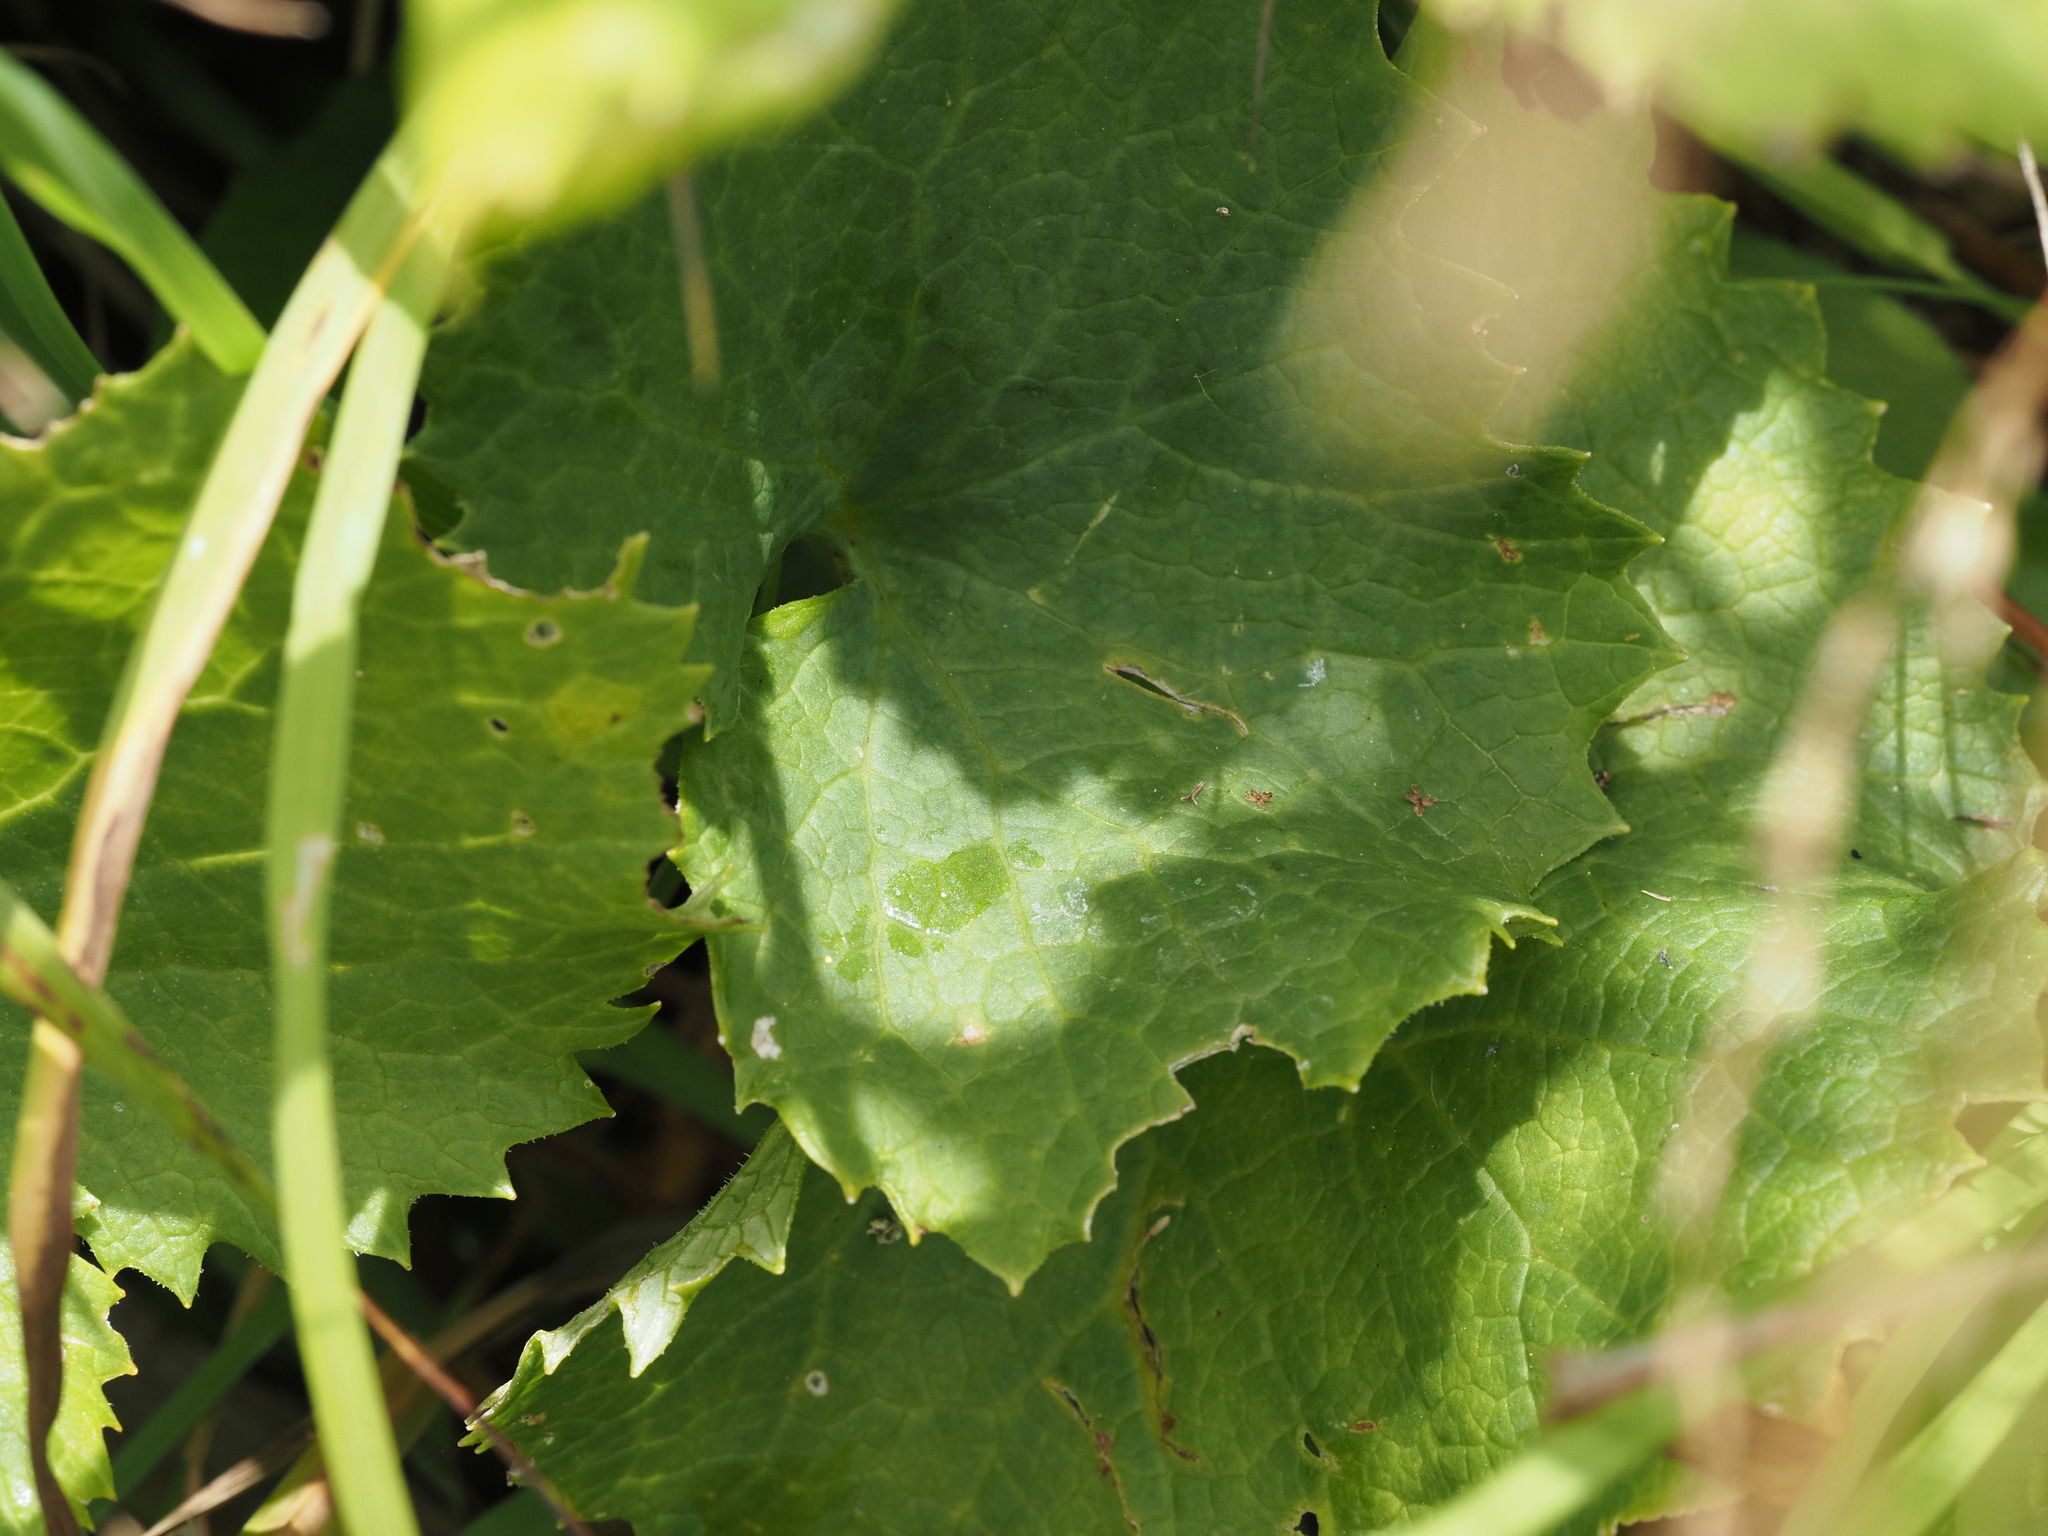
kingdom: Plantae
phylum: Tracheophyta
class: Magnoliopsida
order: Asterales
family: Asteraceae
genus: Adenostyles
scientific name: Adenostyles alpina
